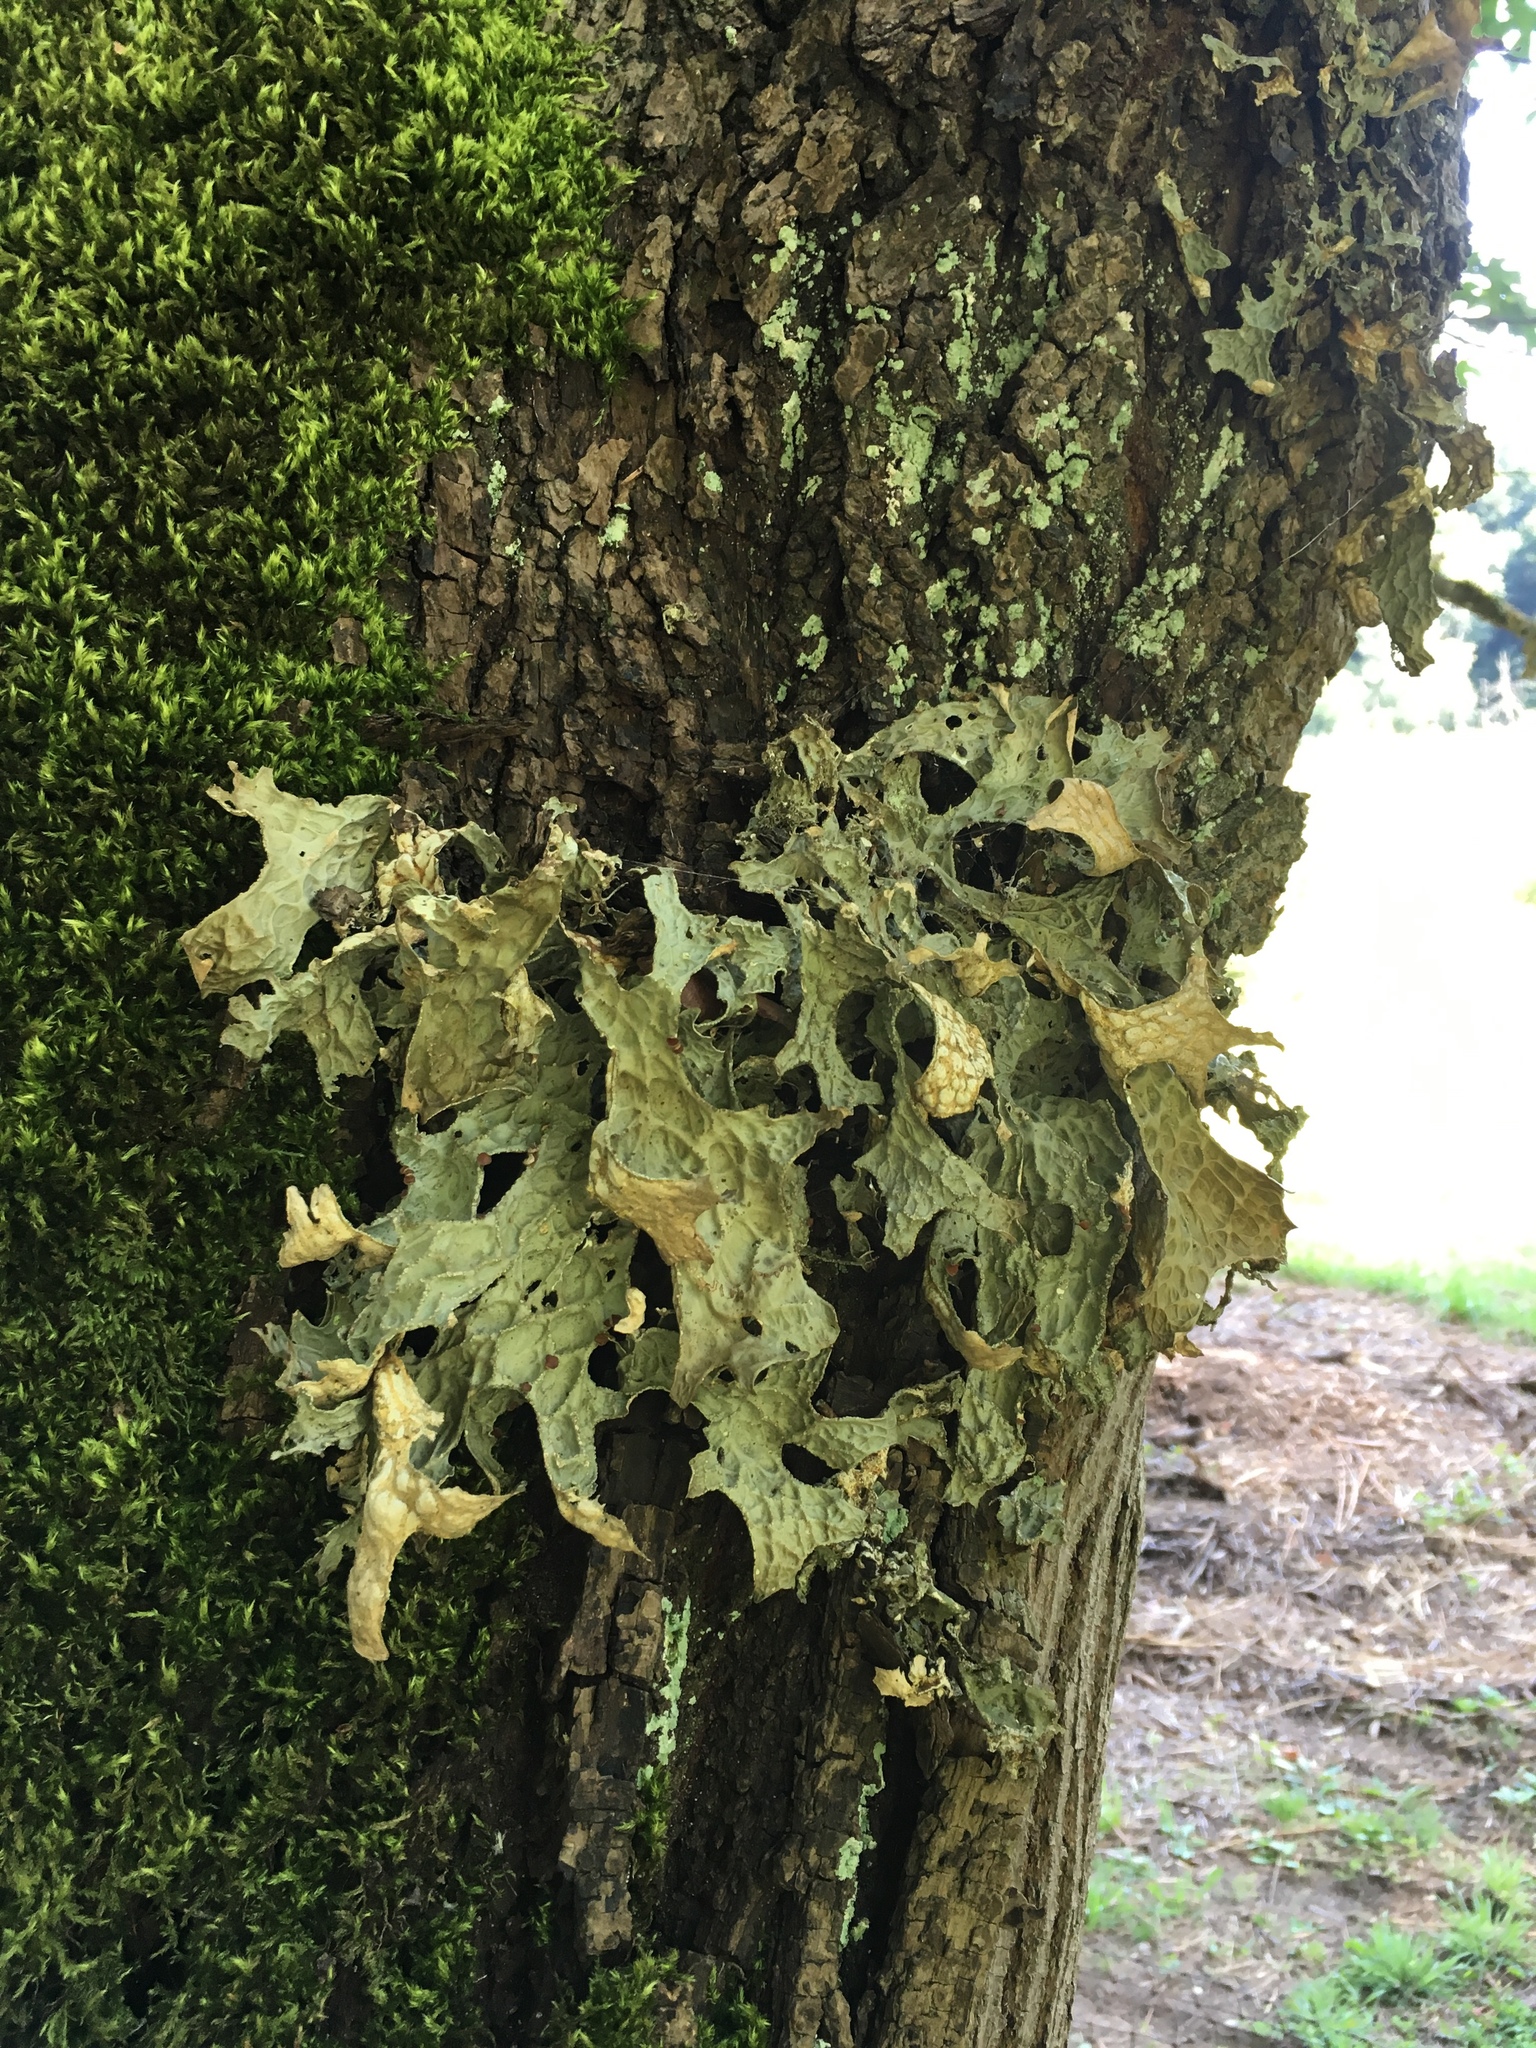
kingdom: Fungi
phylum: Ascomycota
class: Lecanoromycetes
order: Peltigerales
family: Lobariaceae
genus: Lobaria
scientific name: Lobaria pulmonaria
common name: Lungwort
